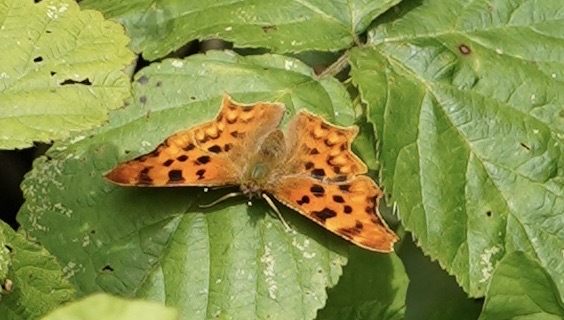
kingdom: Animalia
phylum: Arthropoda
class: Insecta
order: Lepidoptera
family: Nymphalidae
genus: Polygonia
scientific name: Polygonia c-album
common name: Comma
